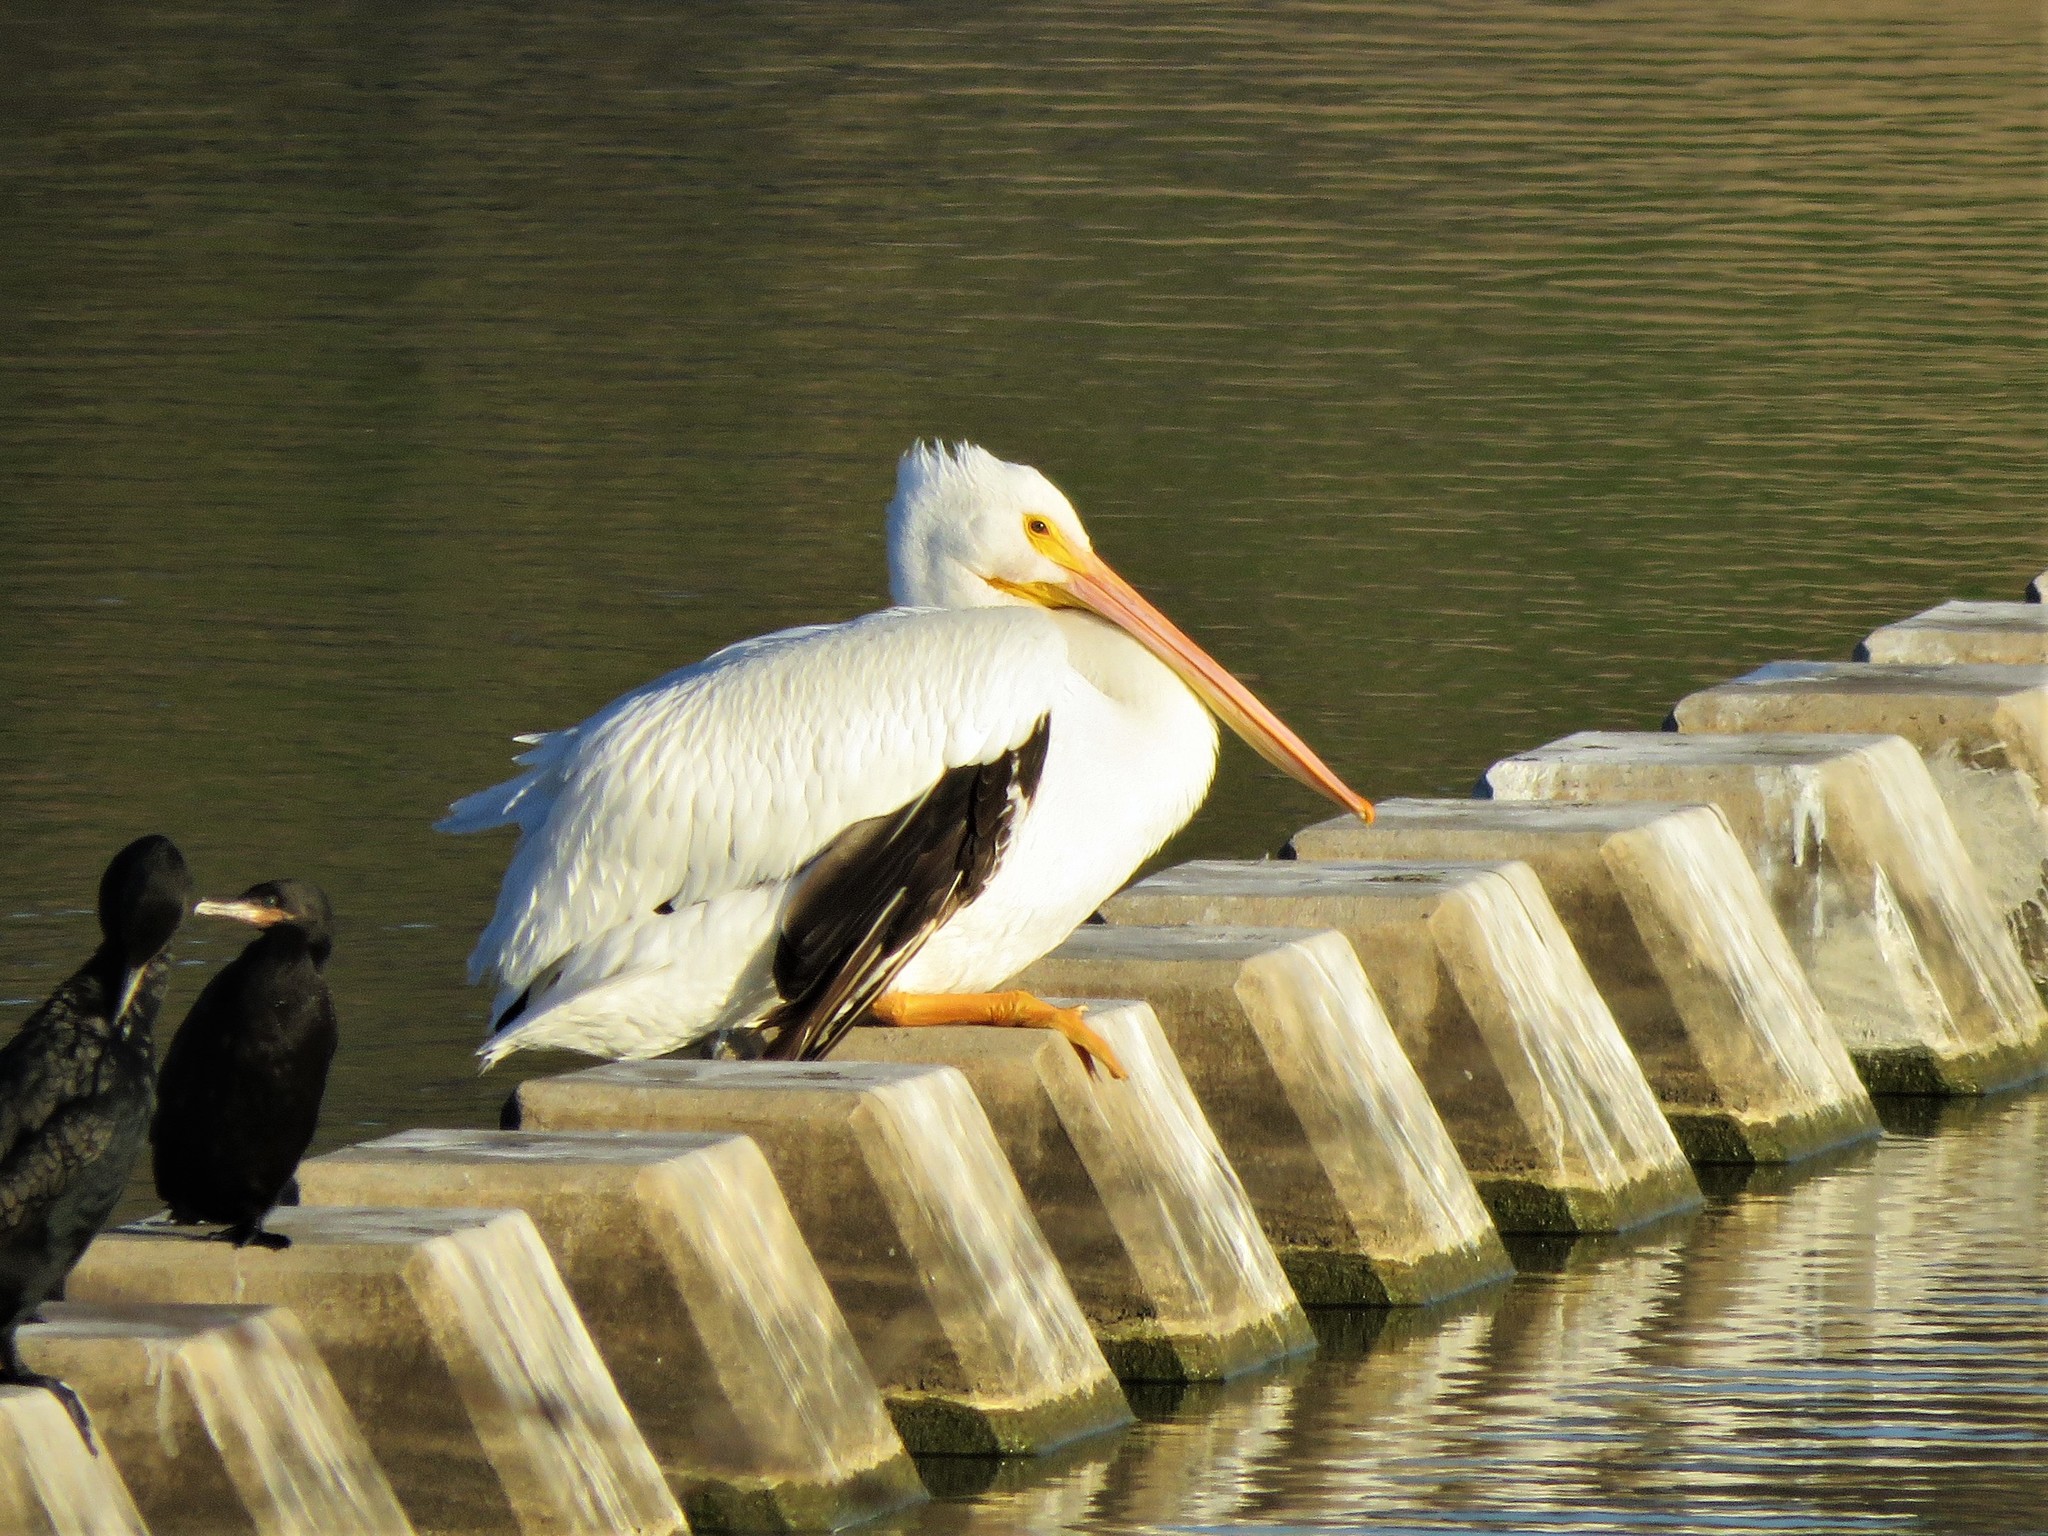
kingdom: Animalia
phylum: Chordata
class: Aves
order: Pelecaniformes
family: Pelecanidae
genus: Pelecanus
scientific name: Pelecanus erythrorhynchos
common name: American white pelican
